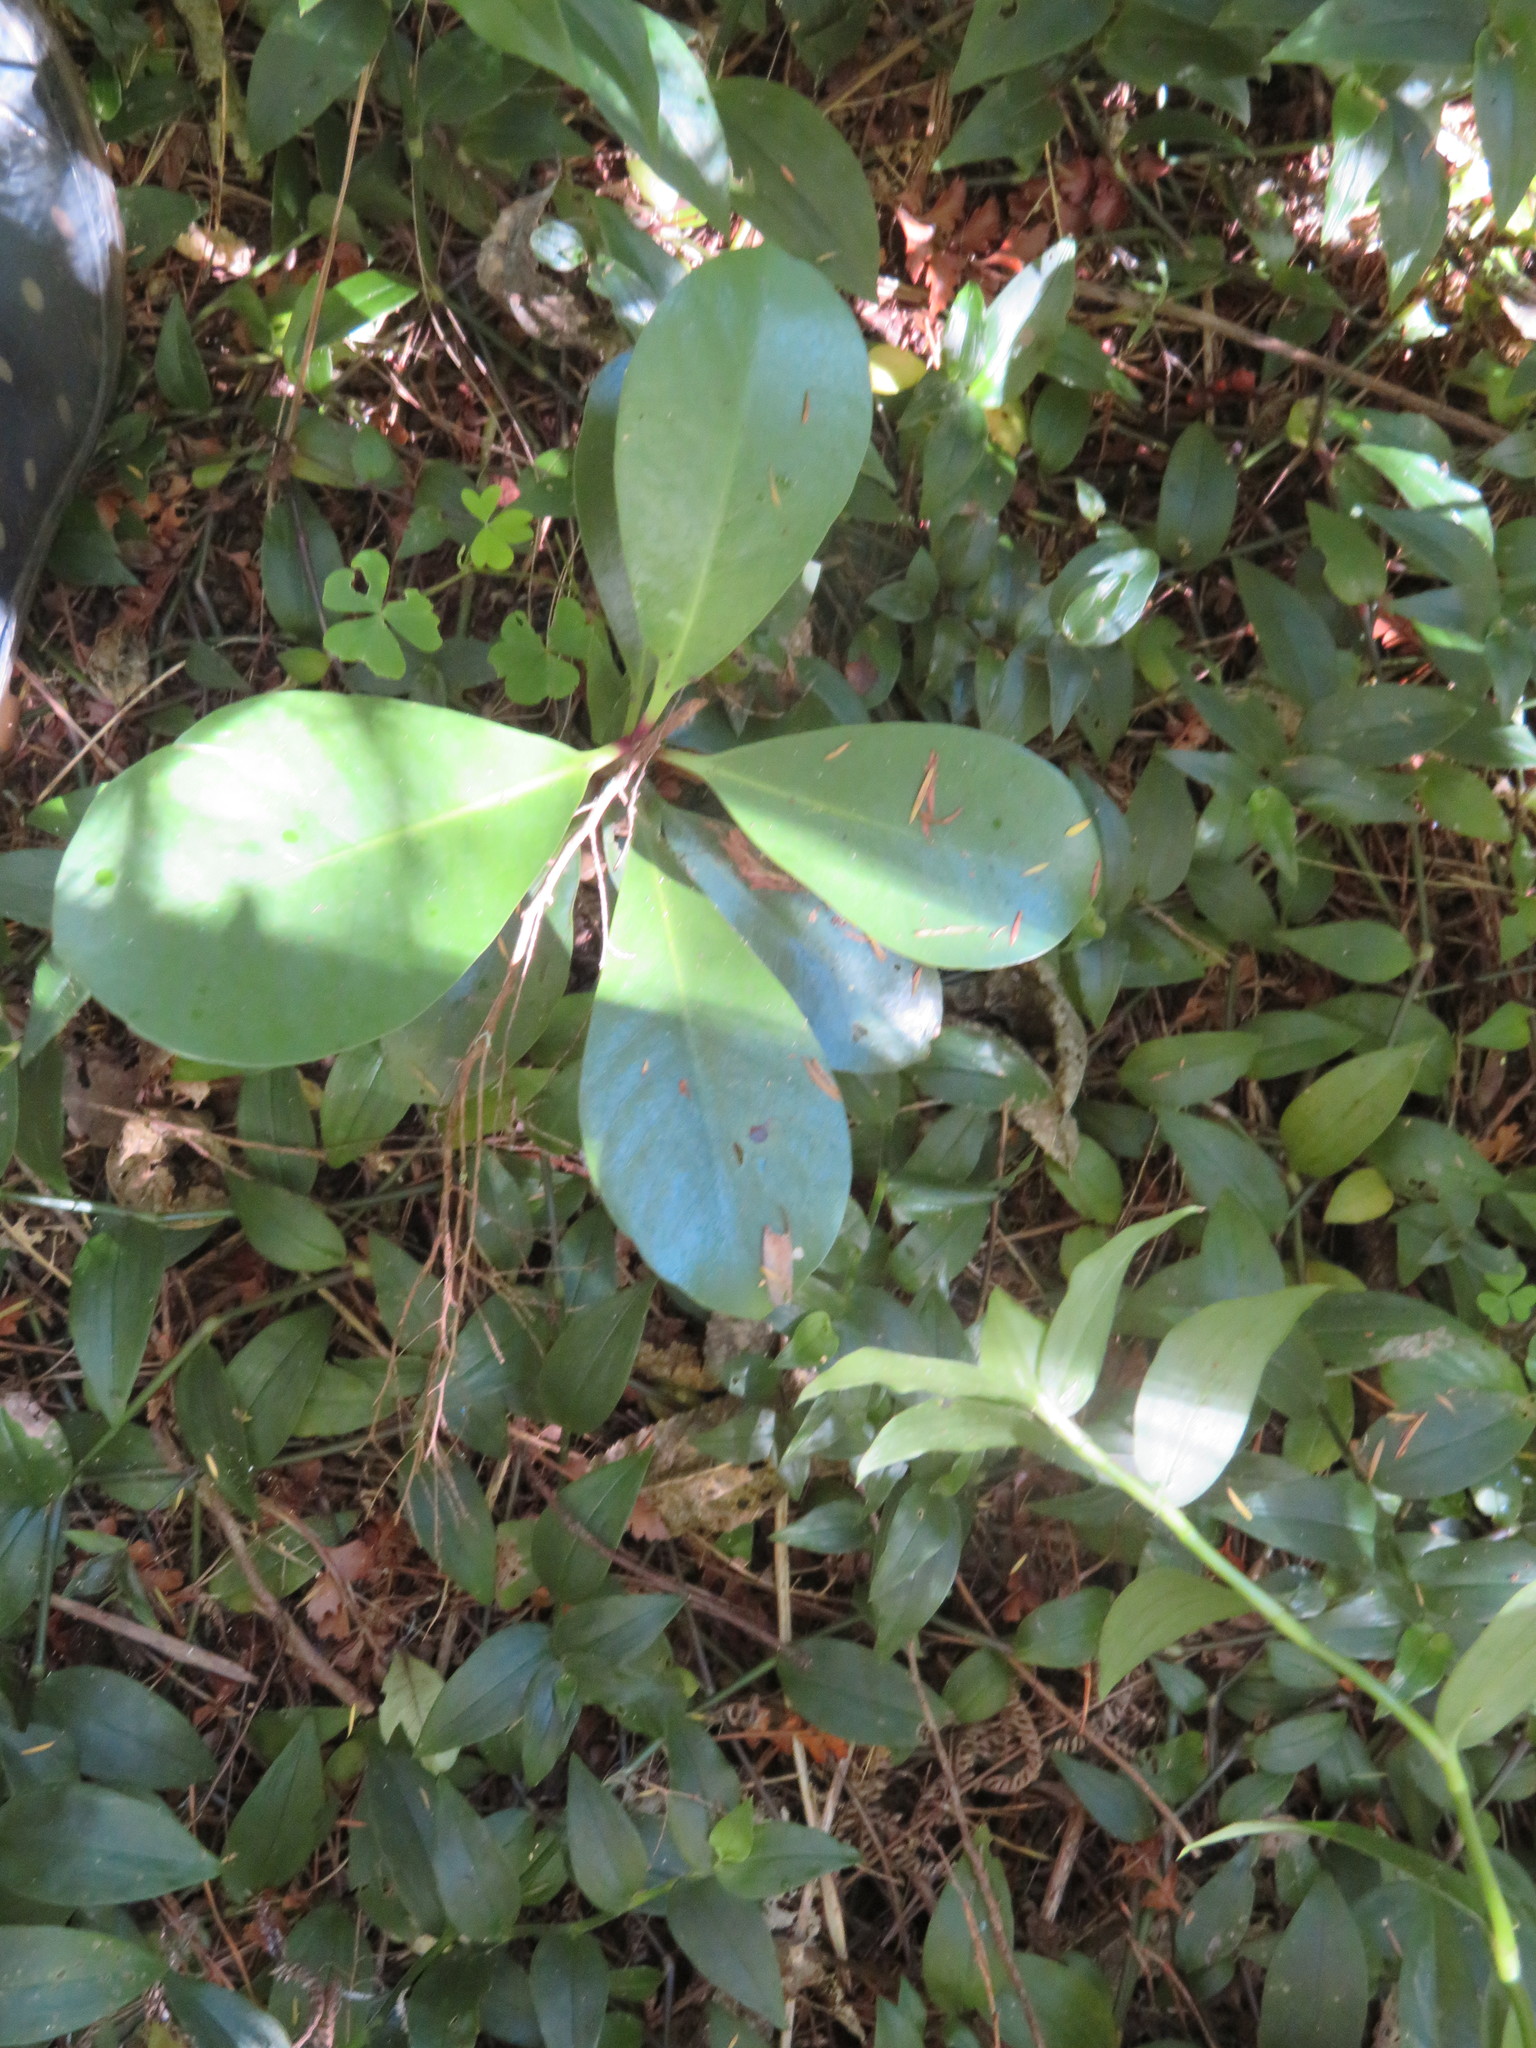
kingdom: Plantae
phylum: Tracheophyta
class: Magnoliopsida
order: Cucurbitales
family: Corynocarpaceae
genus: Corynocarpus
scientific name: Corynocarpus laevigatus
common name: New zealand laurel
